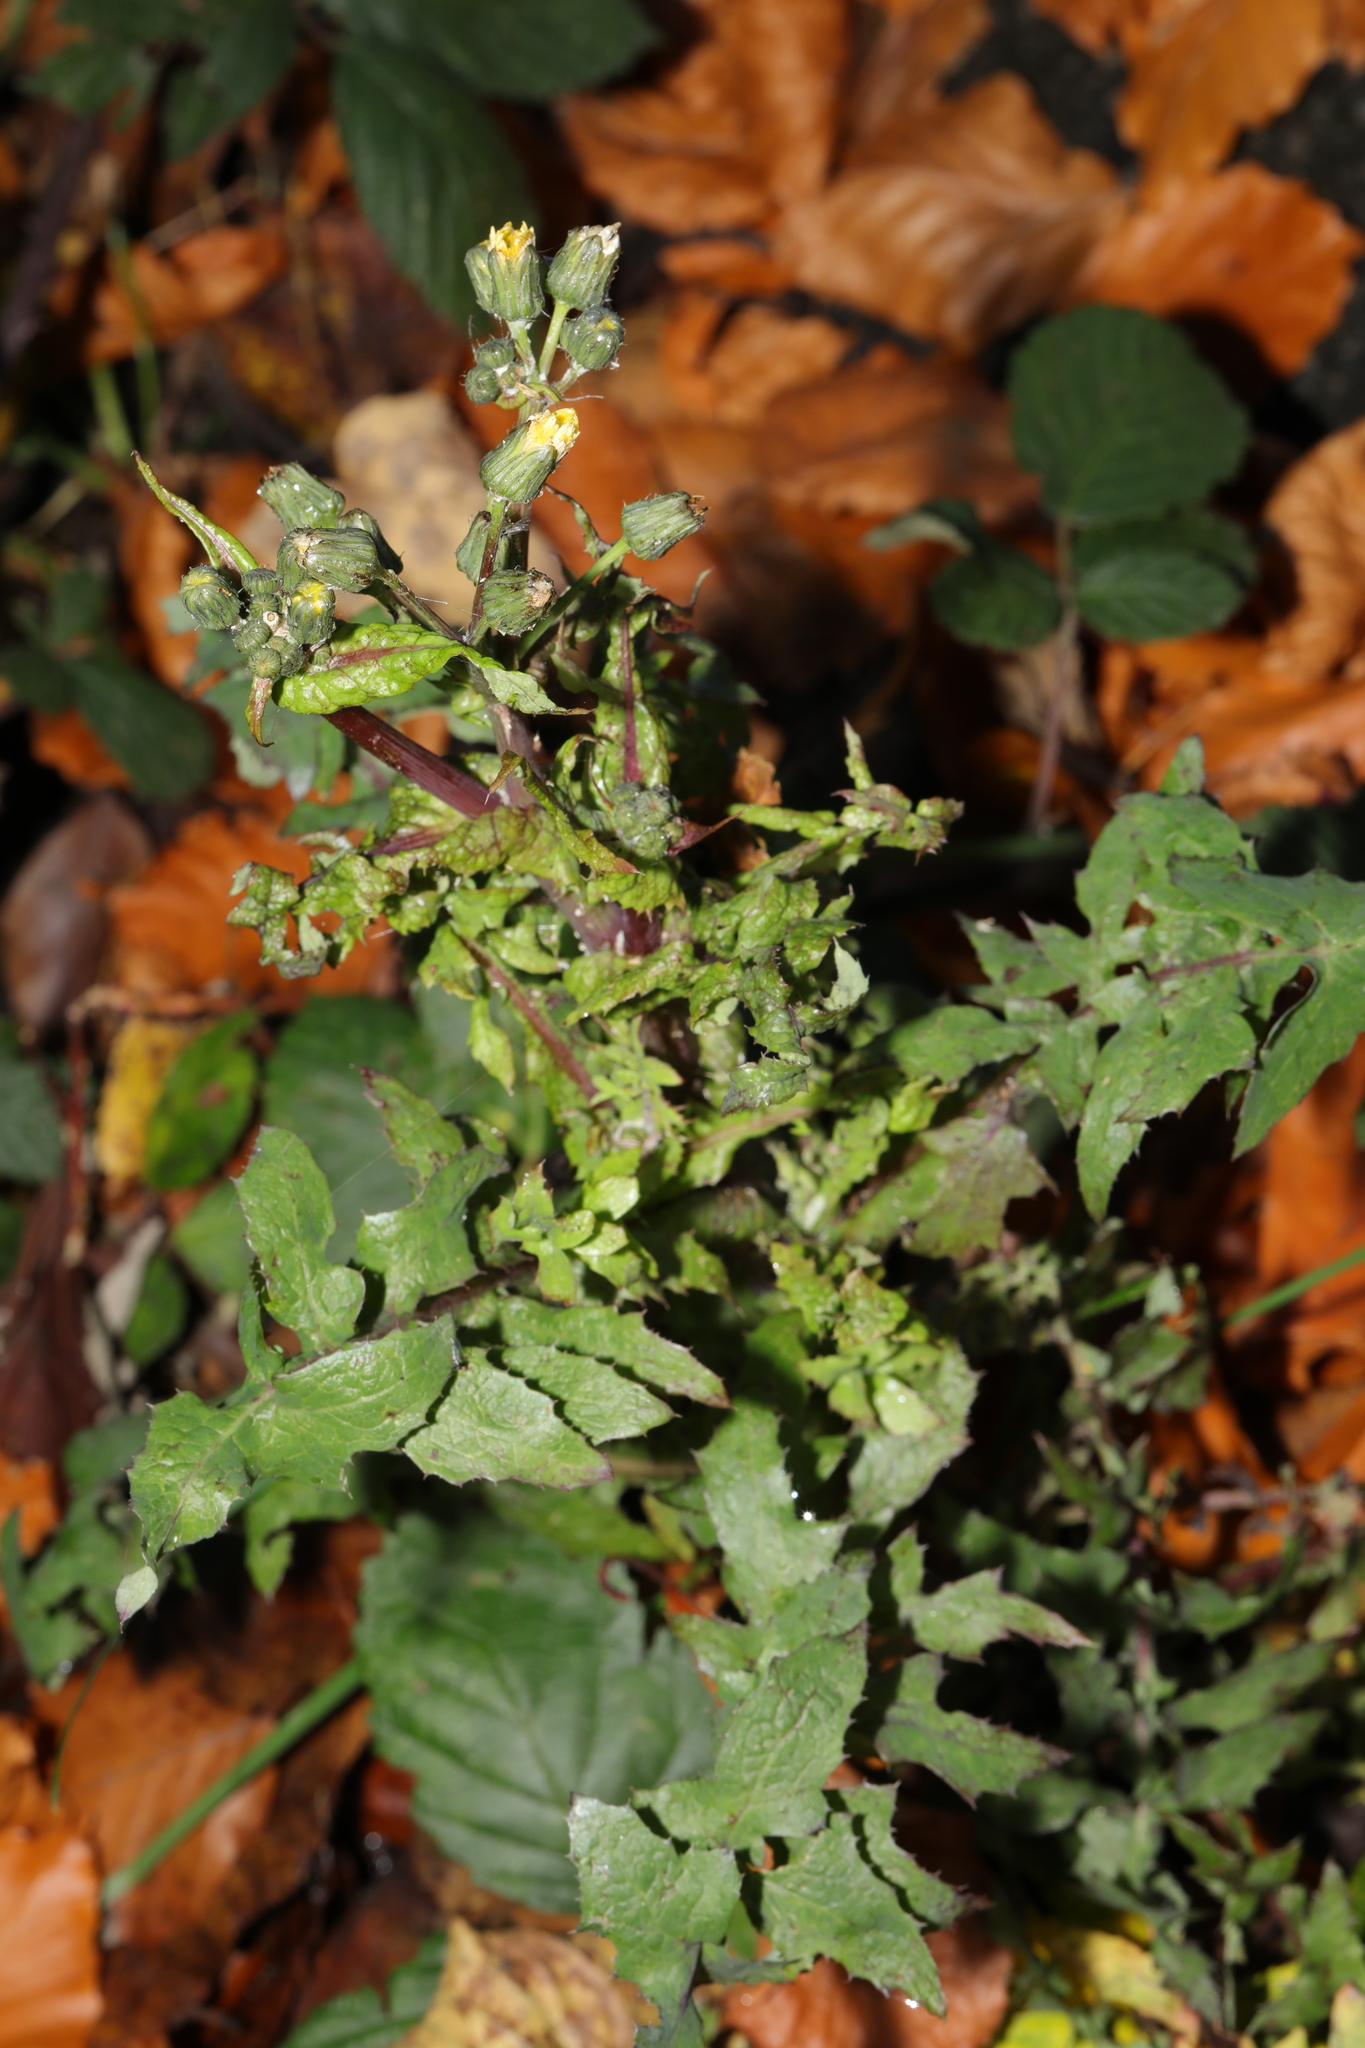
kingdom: Plantae
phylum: Tracheophyta
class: Magnoliopsida
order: Asterales
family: Asteraceae
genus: Sonchus
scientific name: Sonchus oleraceus
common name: Common sowthistle
